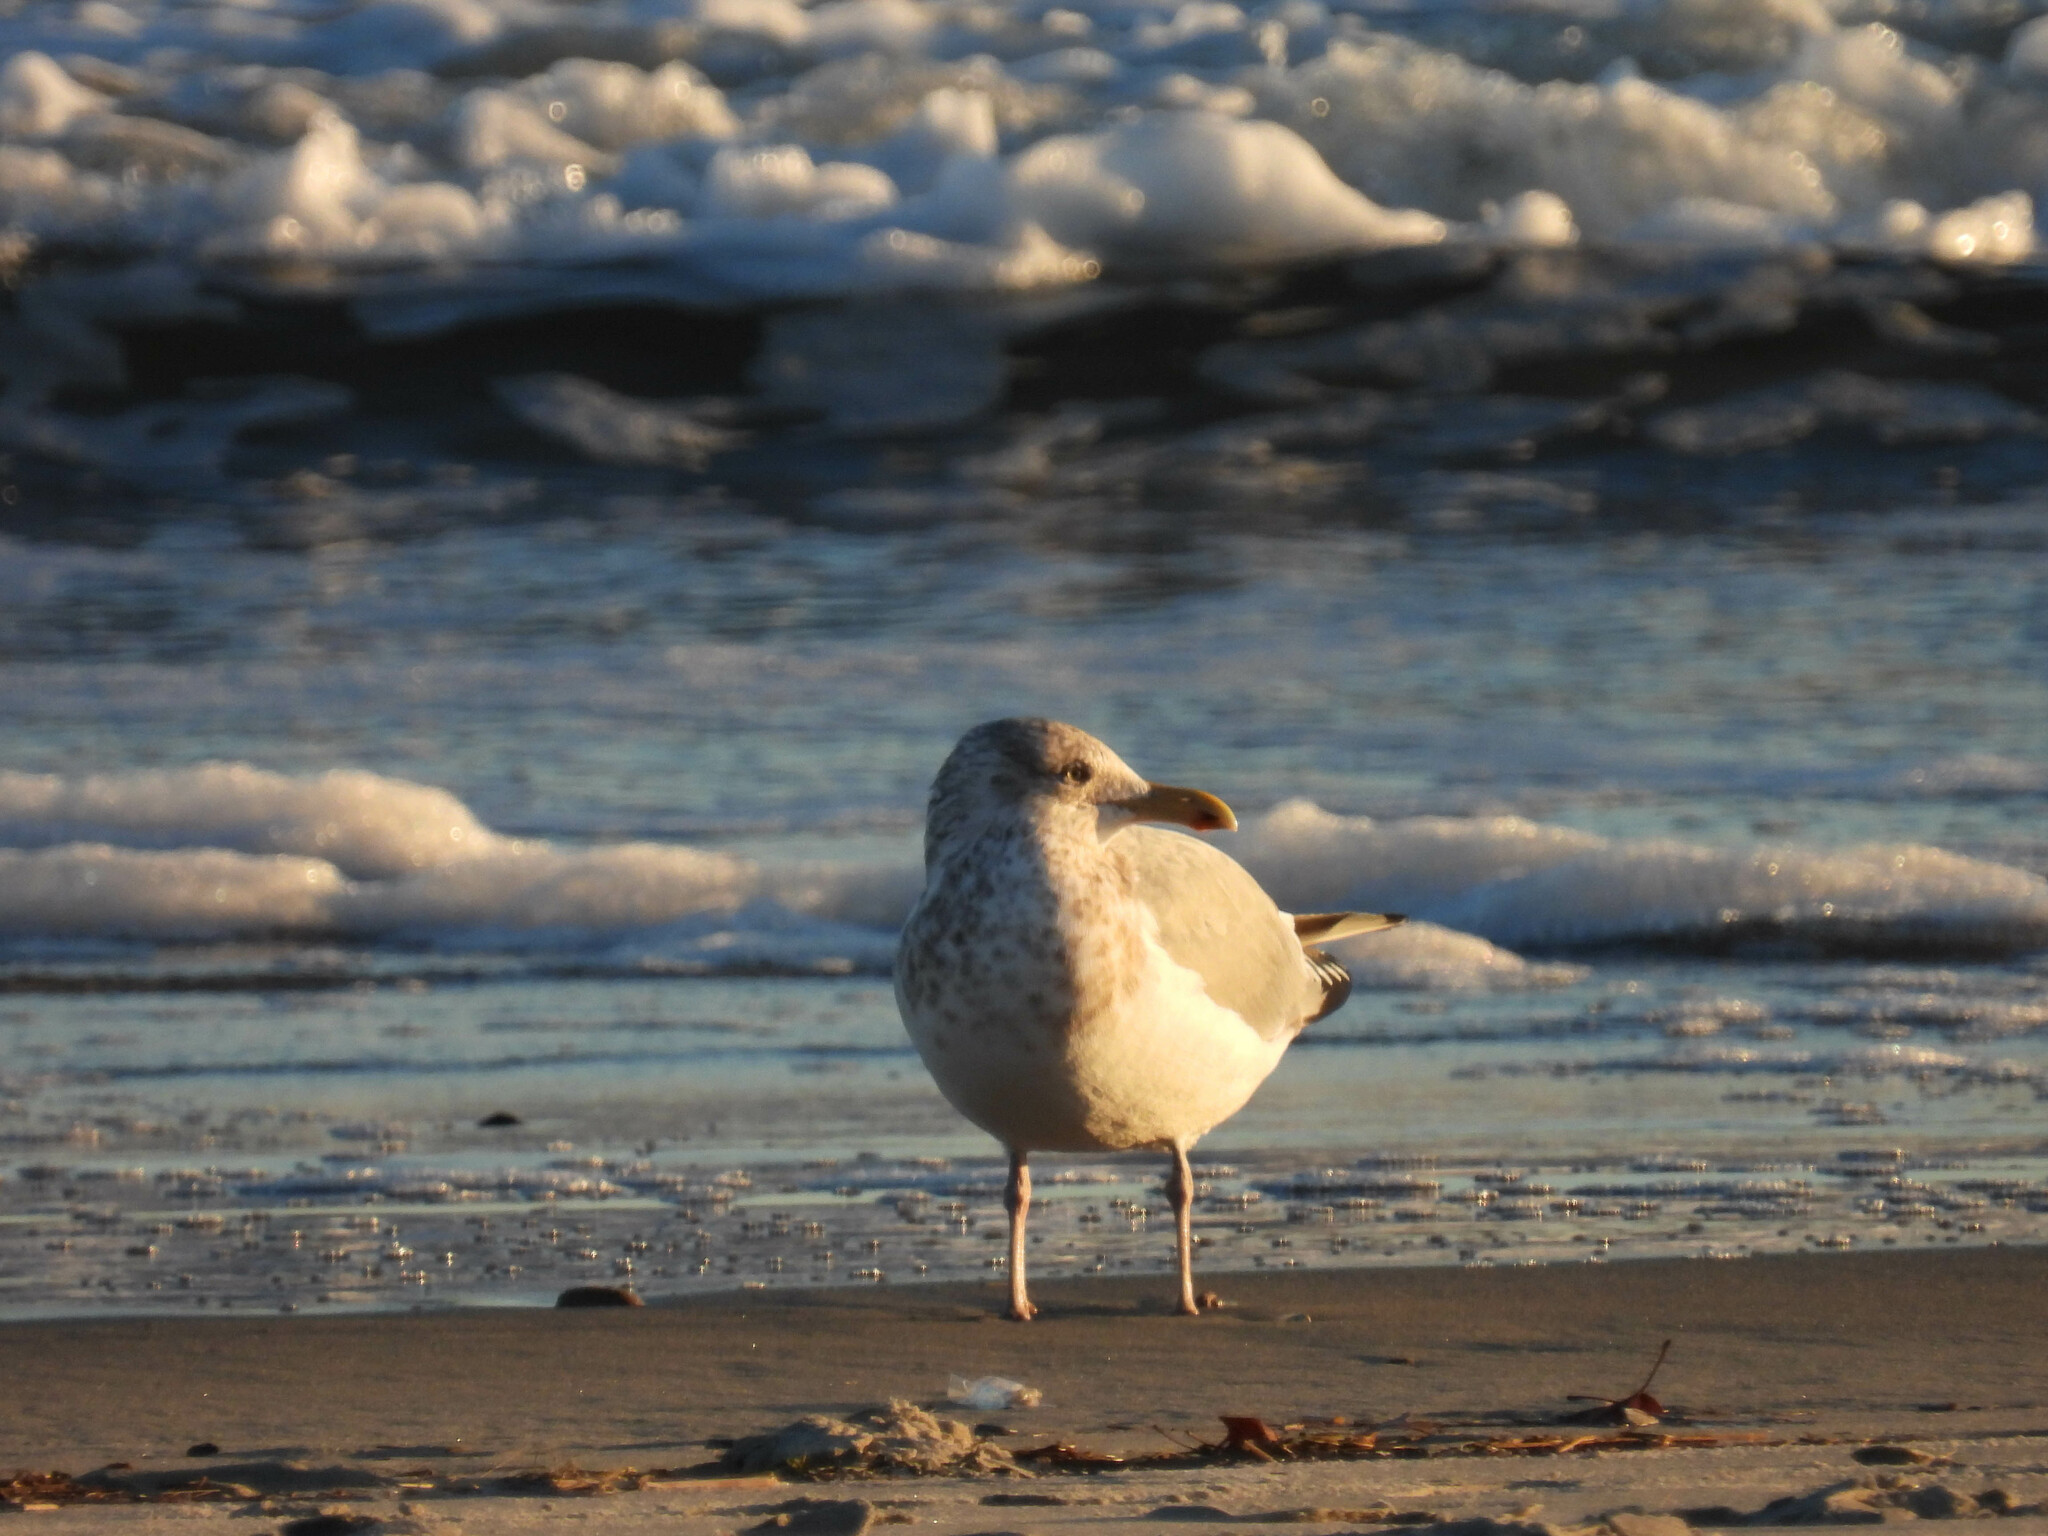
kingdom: Animalia
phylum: Chordata
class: Aves
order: Charadriiformes
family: Laridae
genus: Larus
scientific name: Larus argentatus
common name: Herring gull
